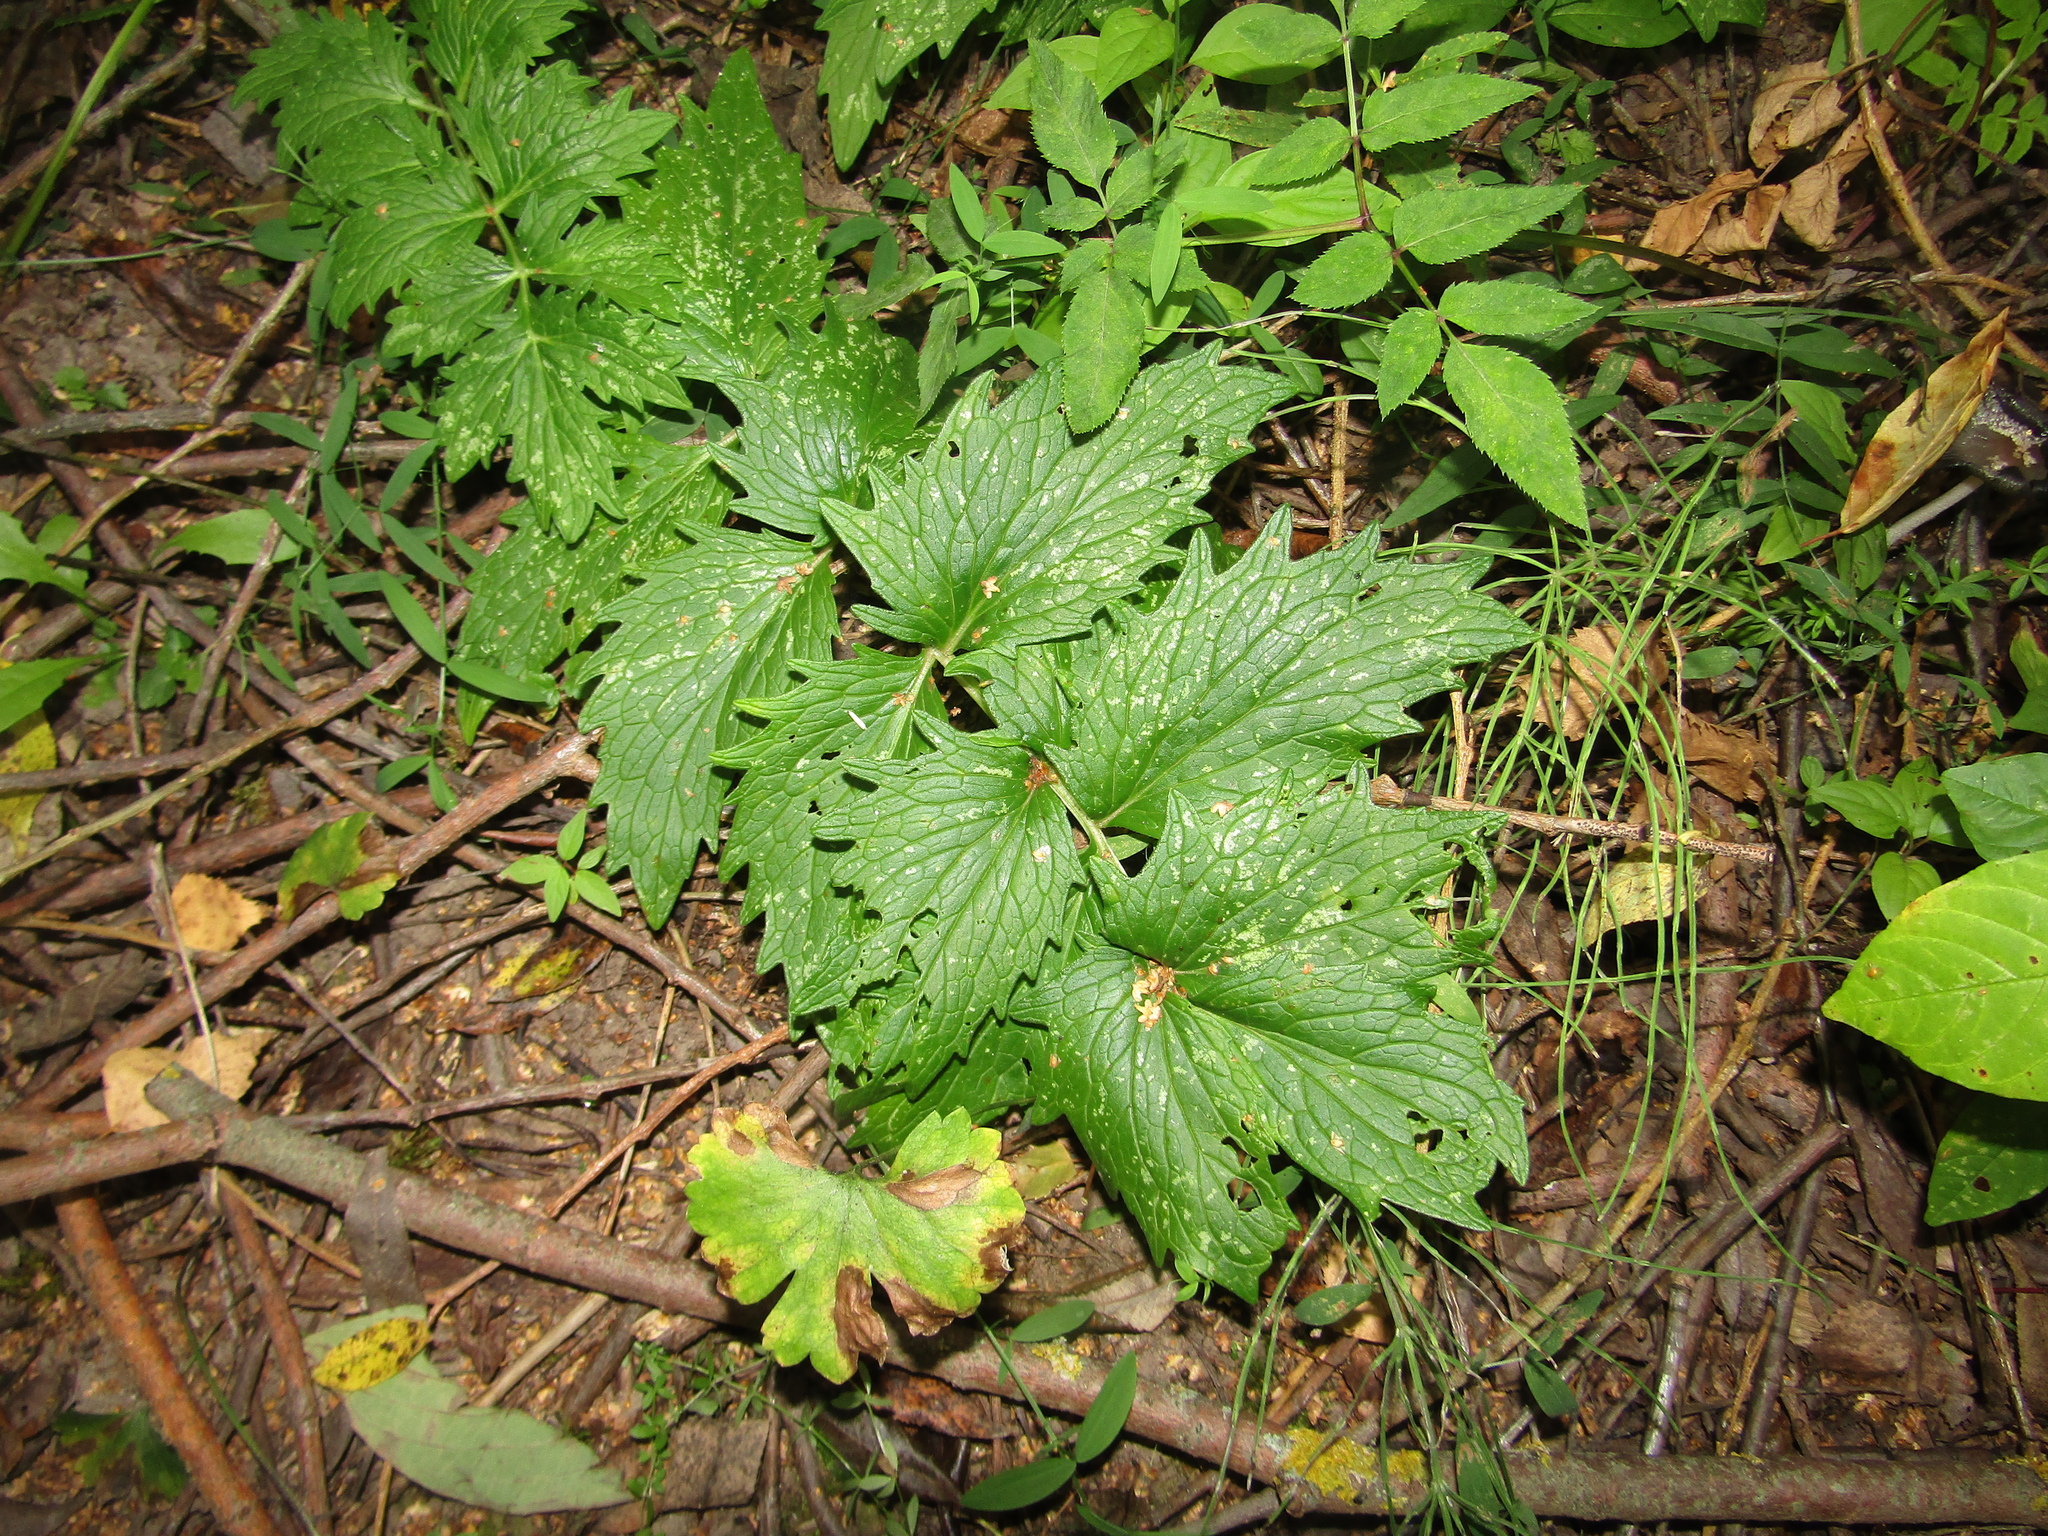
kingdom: Plantae
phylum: Tracheophyta
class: Magnoliopsida
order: Dipsacales
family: Caprifoliaceae
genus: Valeriana
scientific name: Valeriana officinalis
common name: Common valerian
